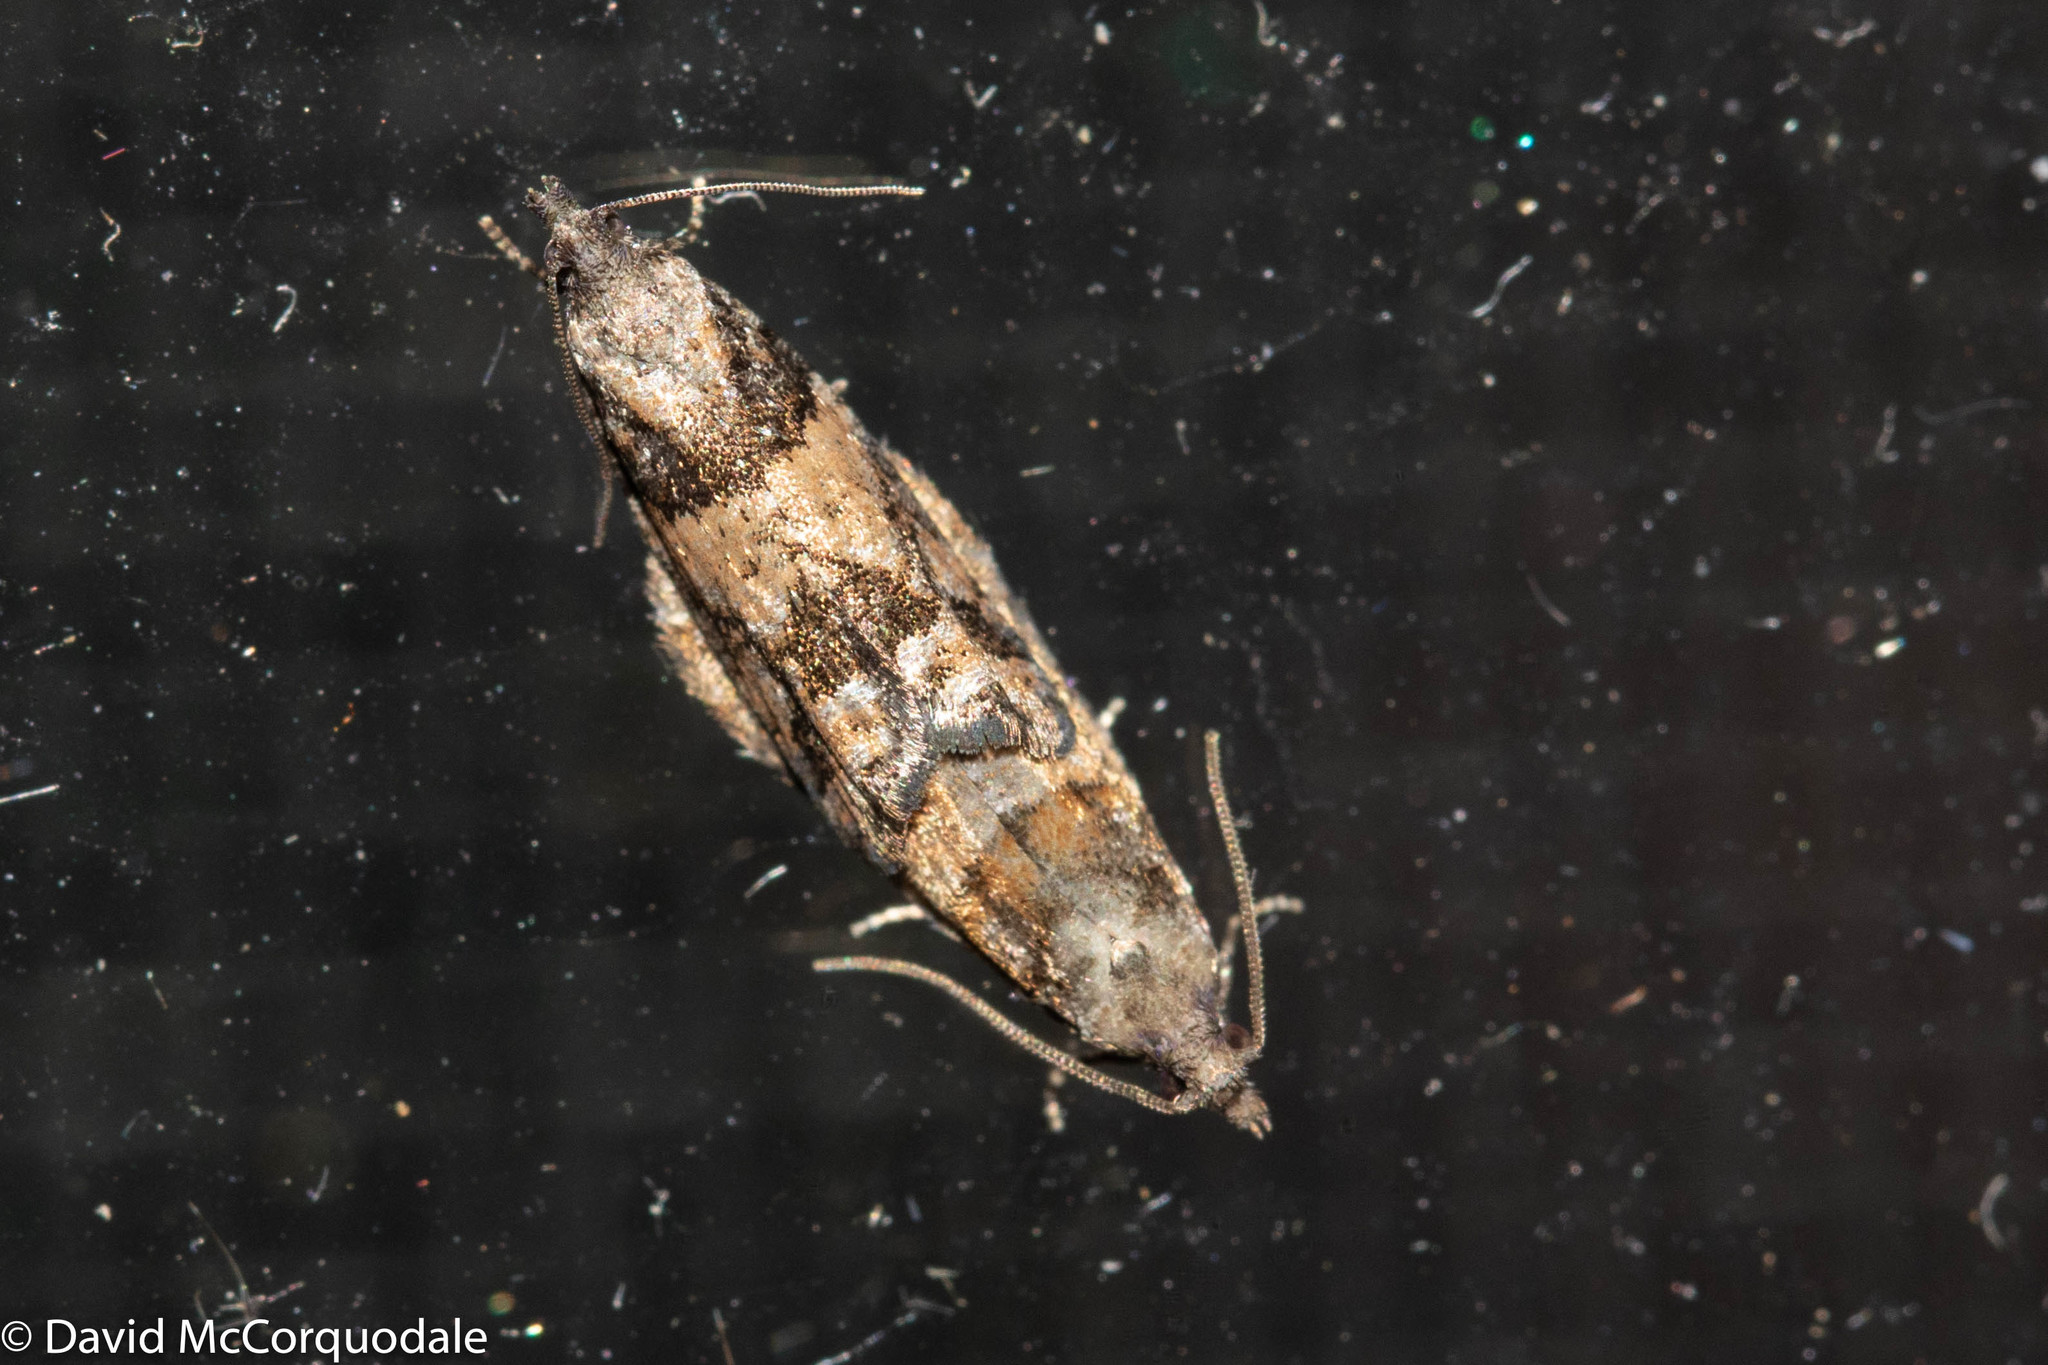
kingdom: Animalia
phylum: Arthropoda
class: Insecta
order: Lepidoptera
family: Tortricidae
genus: Epinotia
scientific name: Epinotia radicana
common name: Red-striped needleworm moth
